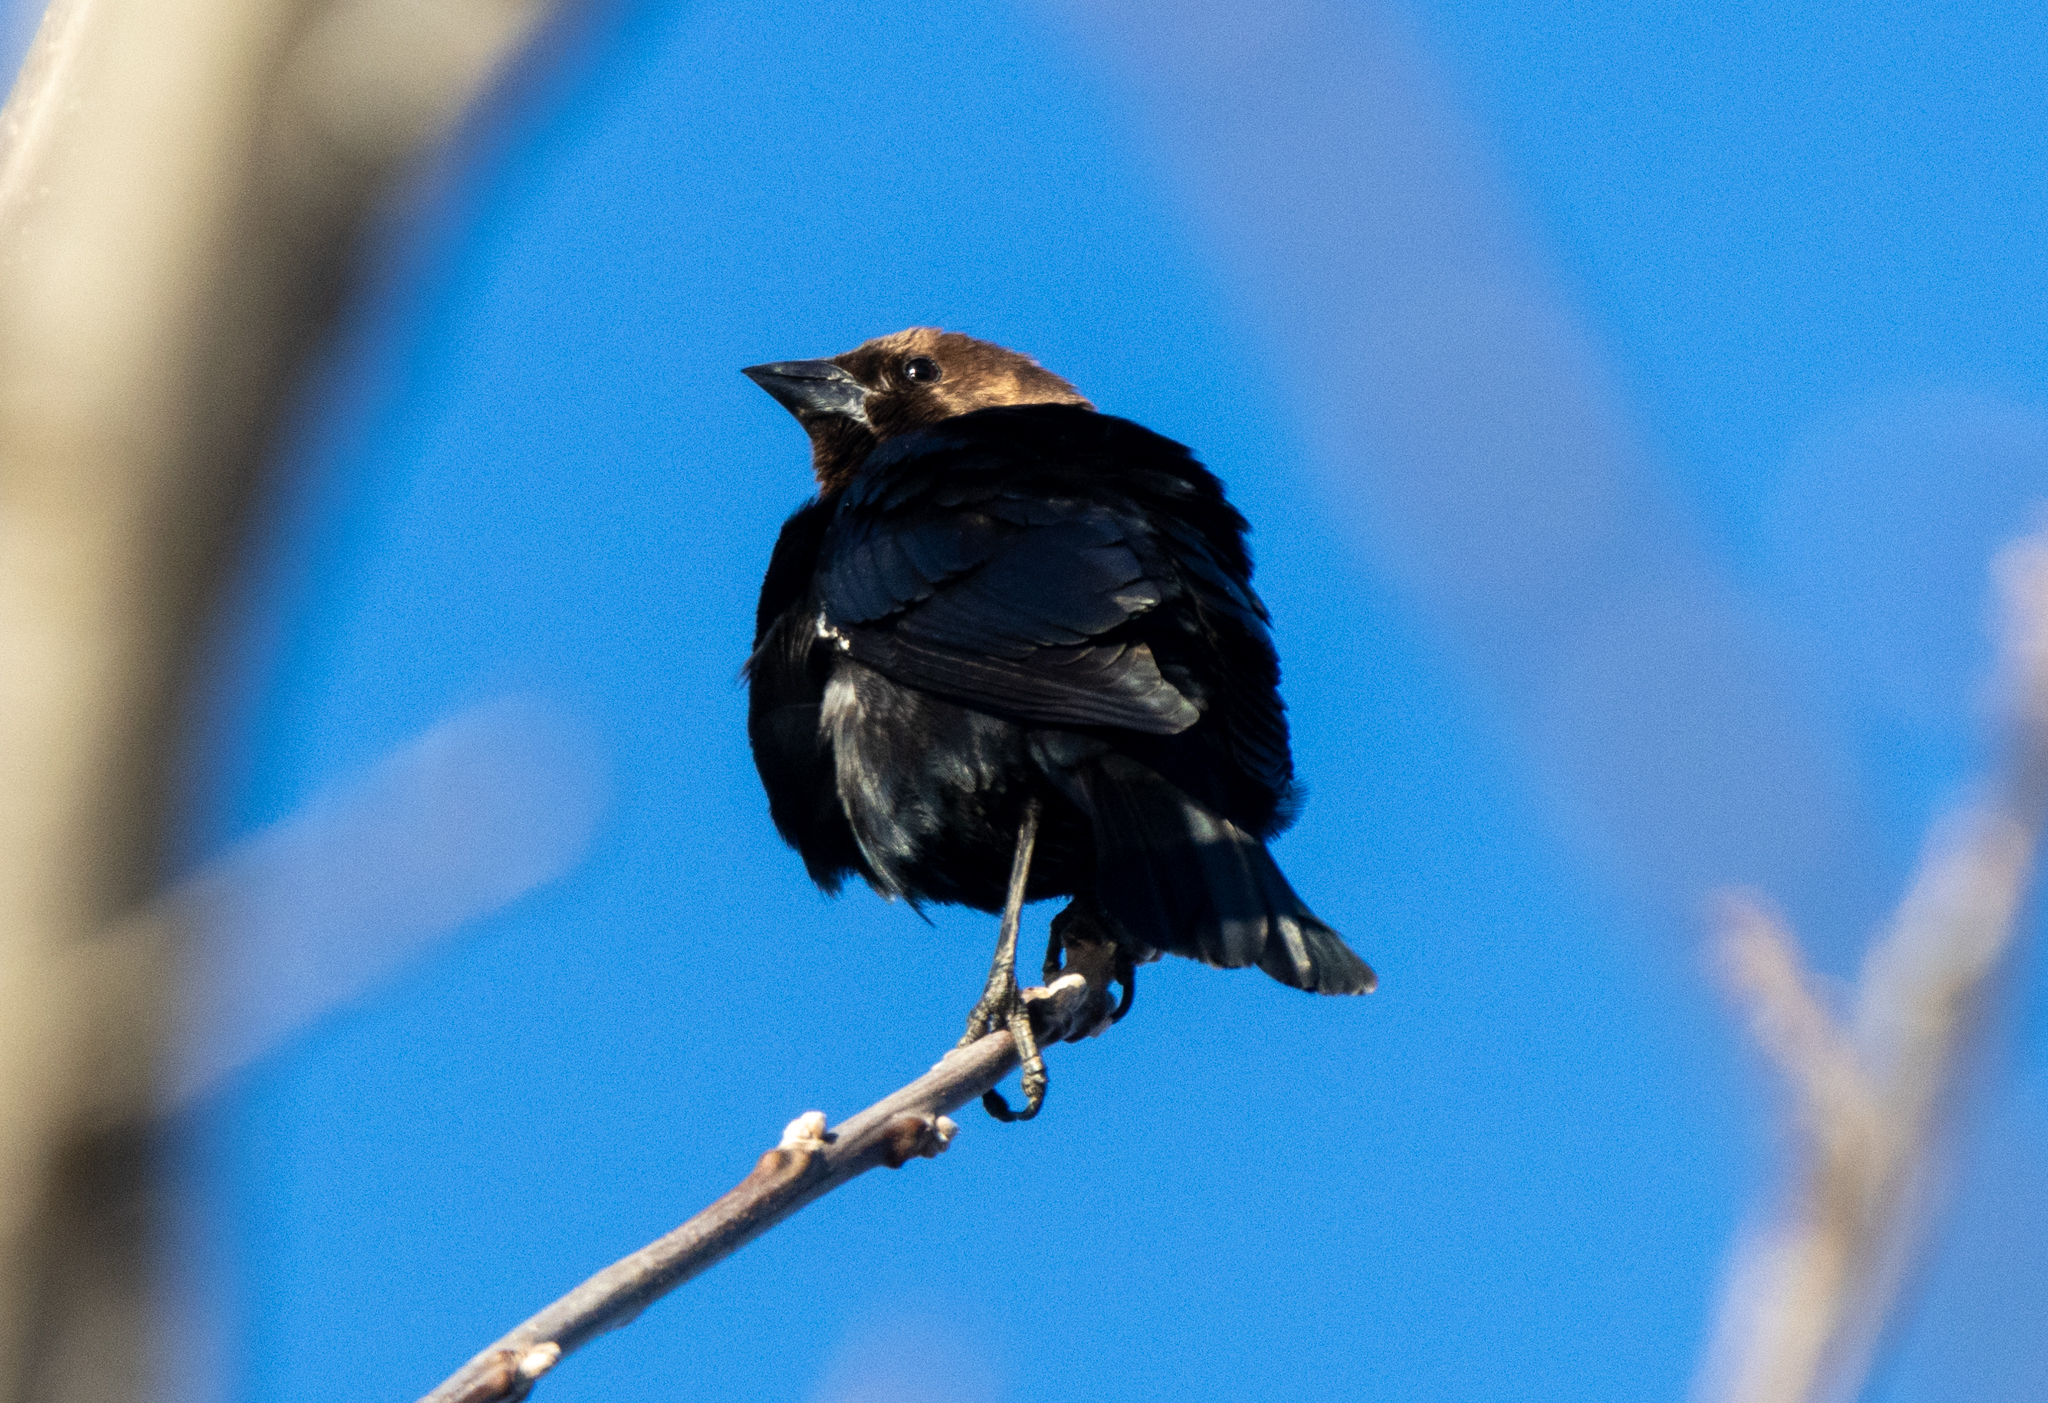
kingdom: Animalia
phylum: Chordata
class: Aves
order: Passeriformes
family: Icteridae
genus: Molothrus
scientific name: Molothrus ater
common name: Brown-headed cowbird
